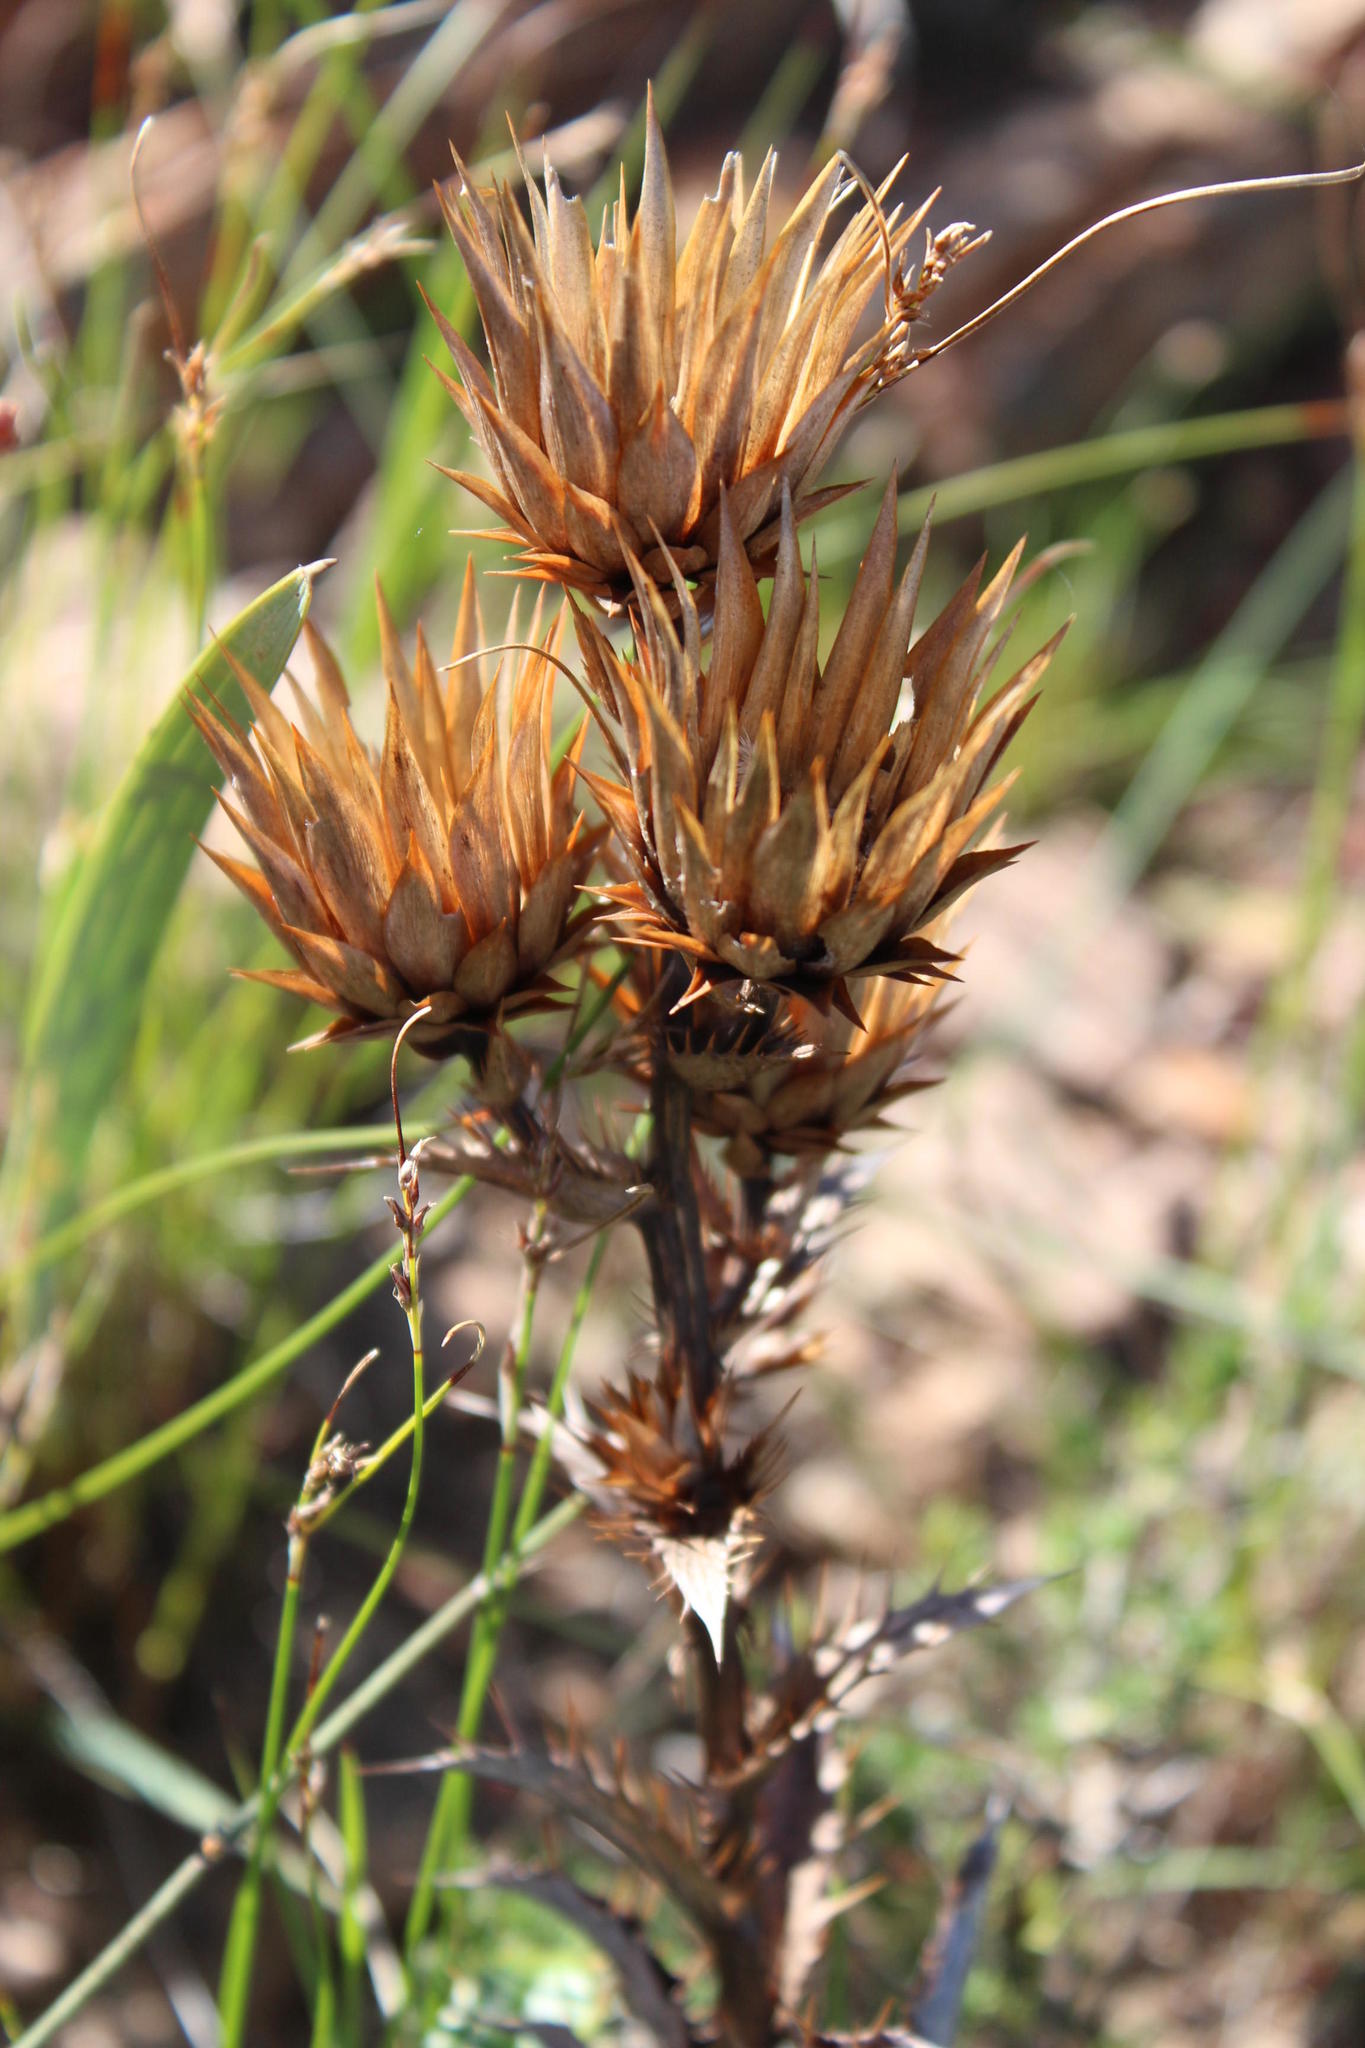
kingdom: Plantae
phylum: Tracheophyta
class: Magnoliopsida
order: Asterales
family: Asteraceae
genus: Berkheya
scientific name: Berkheya herbacea
